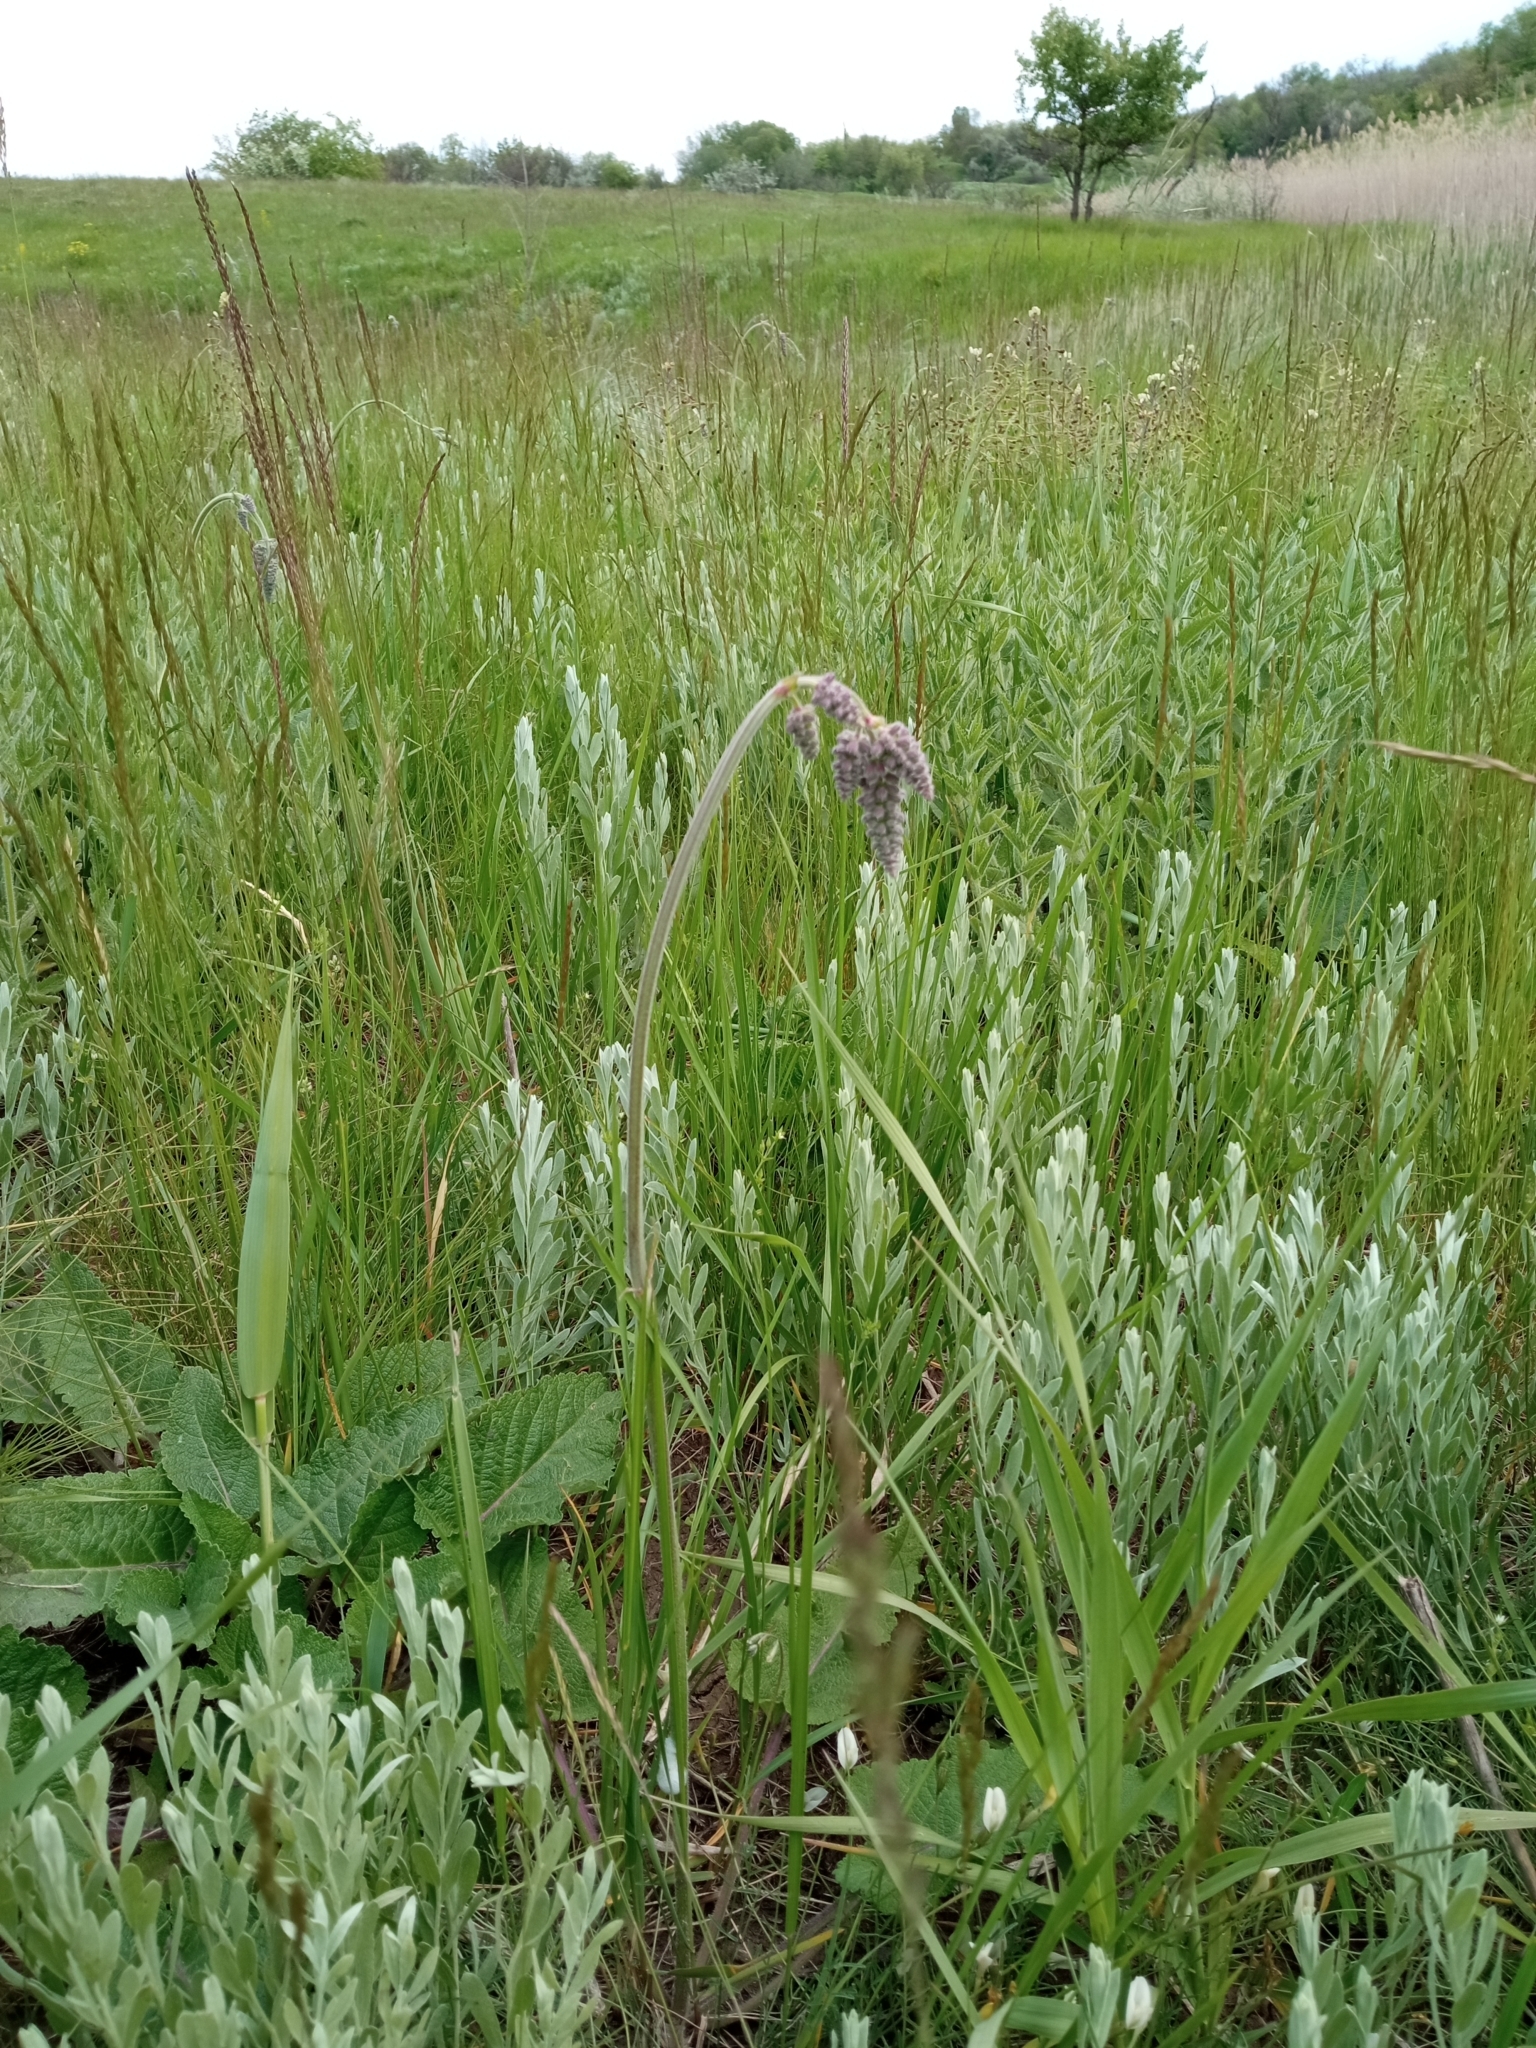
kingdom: Plantae
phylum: Tracheophyta
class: Magnoliopsida
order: Lamiales
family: Lamiaceae
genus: Salvia
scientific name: Salvia nutans
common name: Nodding sage
